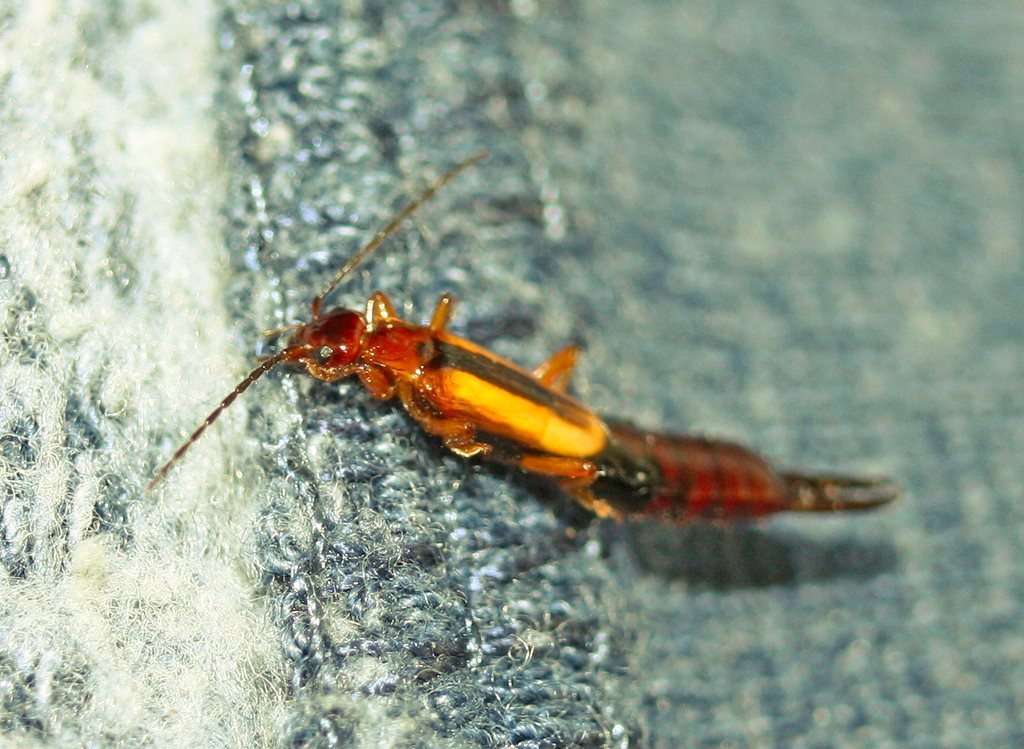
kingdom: Animalia
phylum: Arthropoda
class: Insecta
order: Dermaptera
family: Forficulidae
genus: Elaunon
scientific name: Elaunon bipartitus
